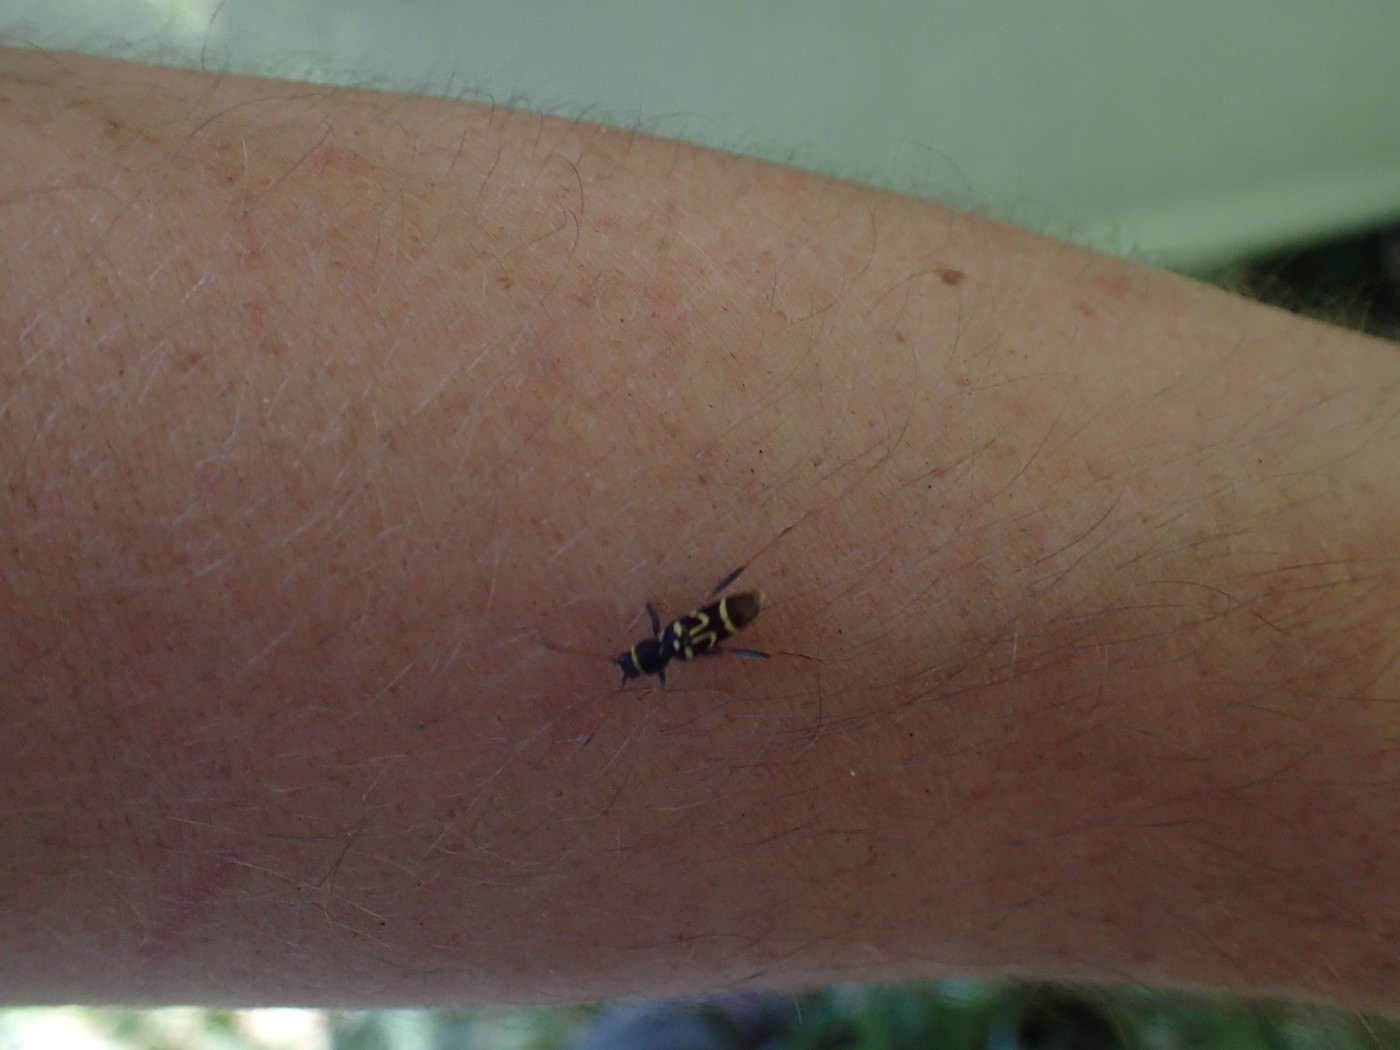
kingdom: Animalia
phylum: Arthropoda
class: Insecta
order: Coleoptera
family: Cerambycidae
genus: Clytus
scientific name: Clytus ruricola
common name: Round-necked longhorn beetle
